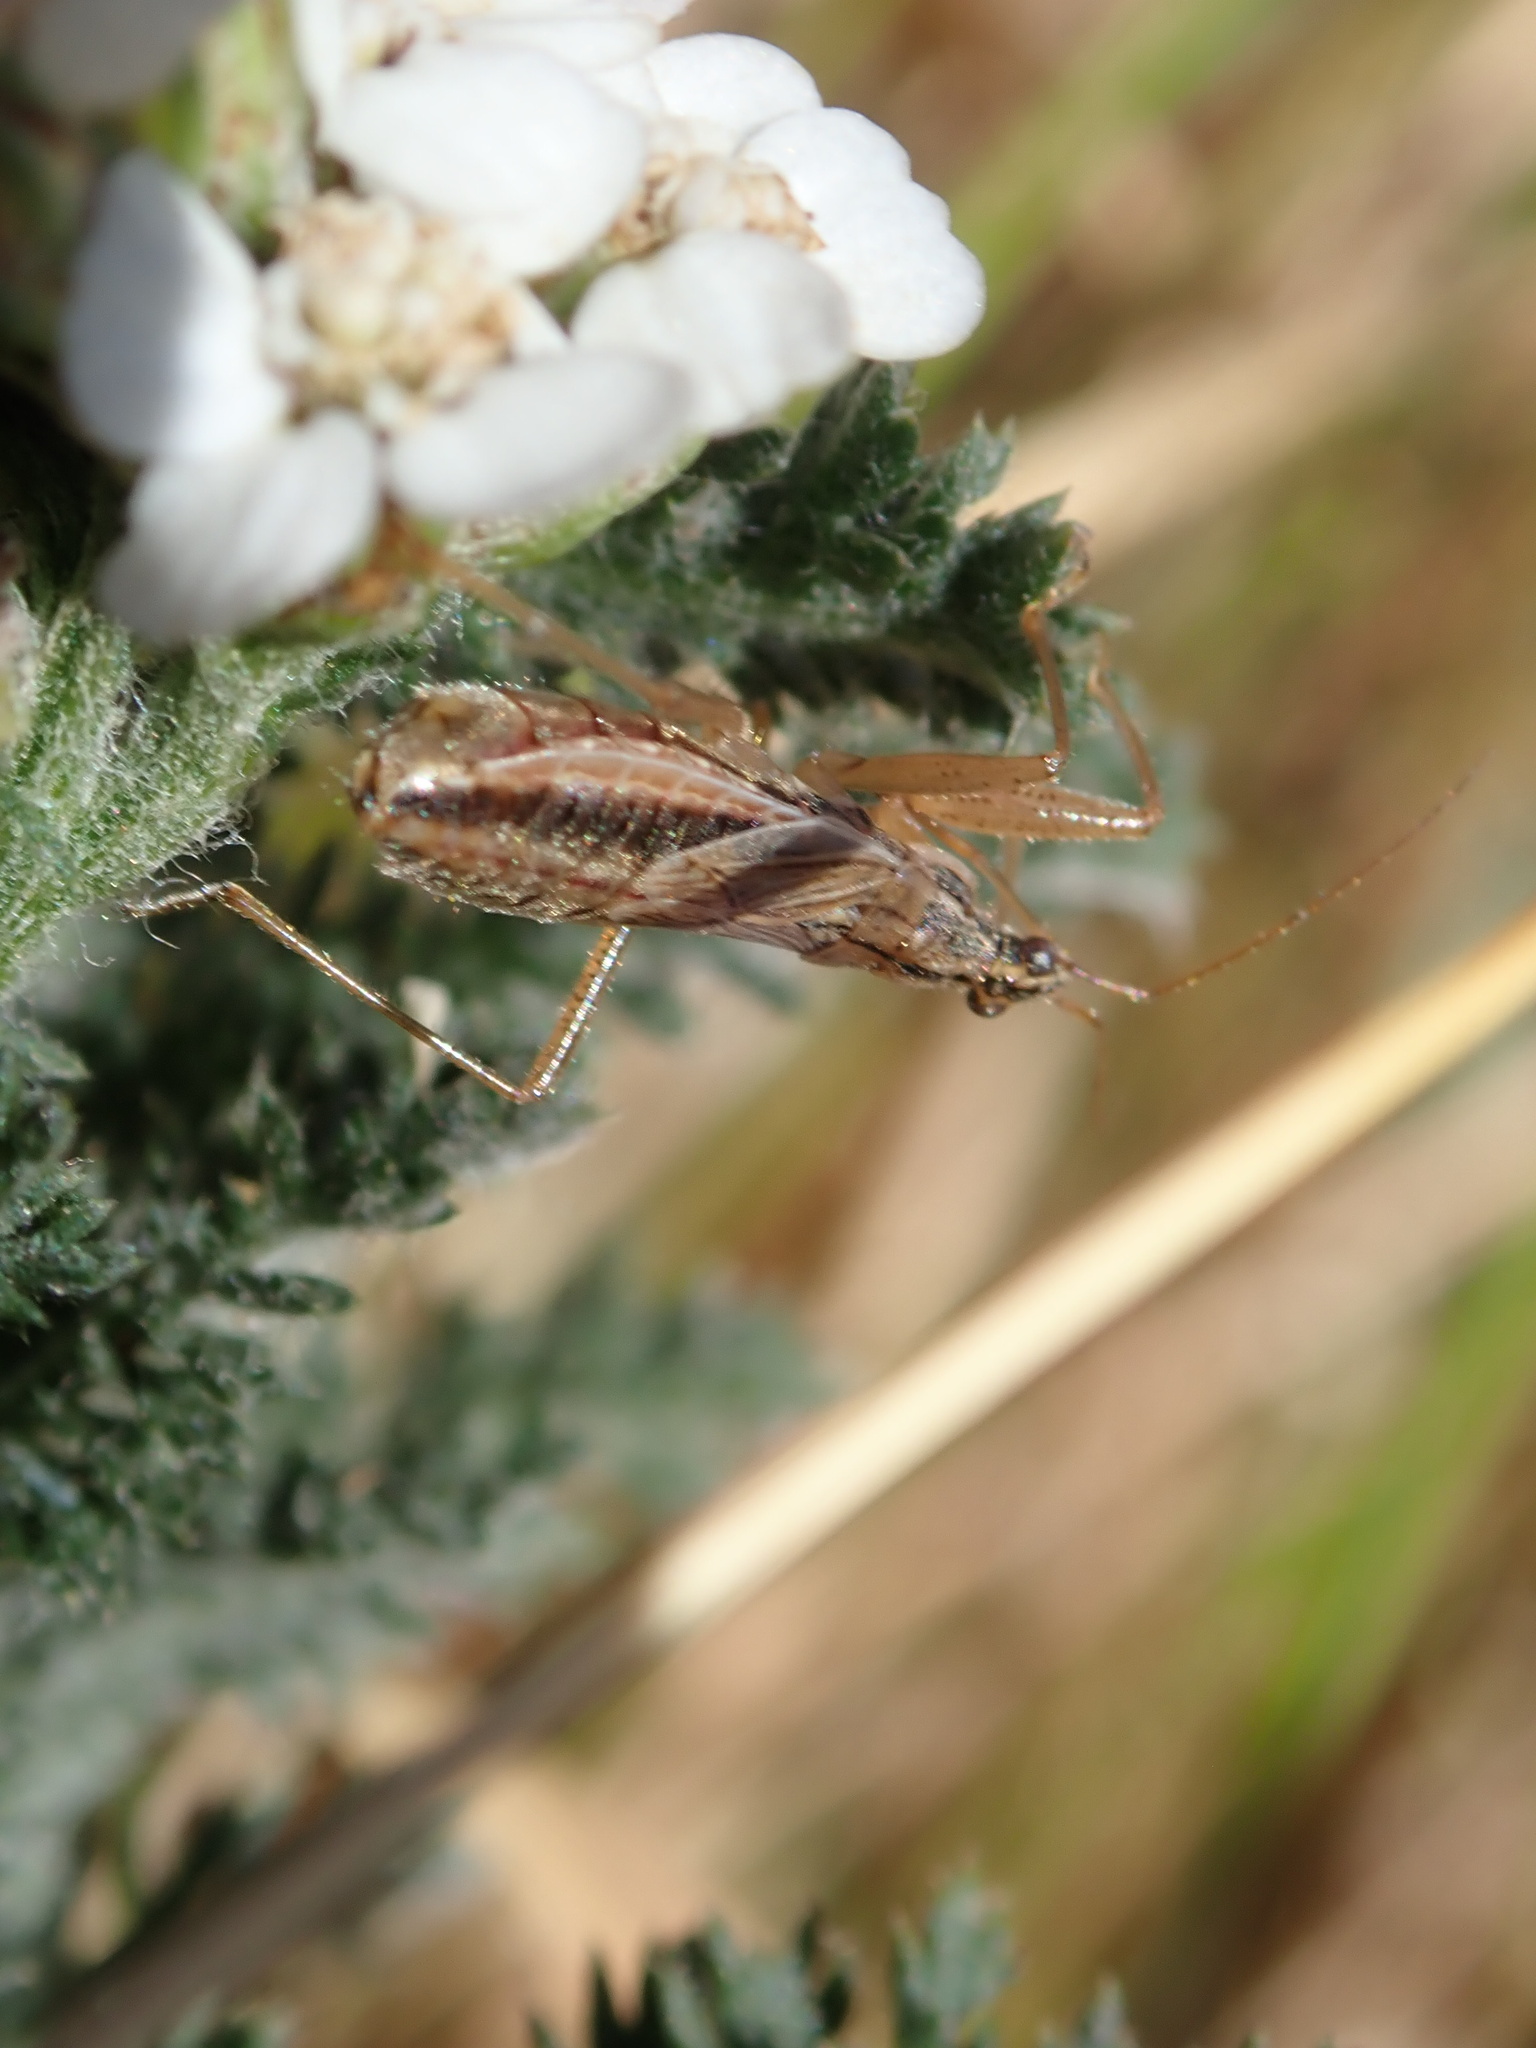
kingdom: Animalia
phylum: Arthropoda
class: Insecta
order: Hemiptera
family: Nabidae
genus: Nabis
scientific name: Nabis flavomarginatus
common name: Broad damselbug
